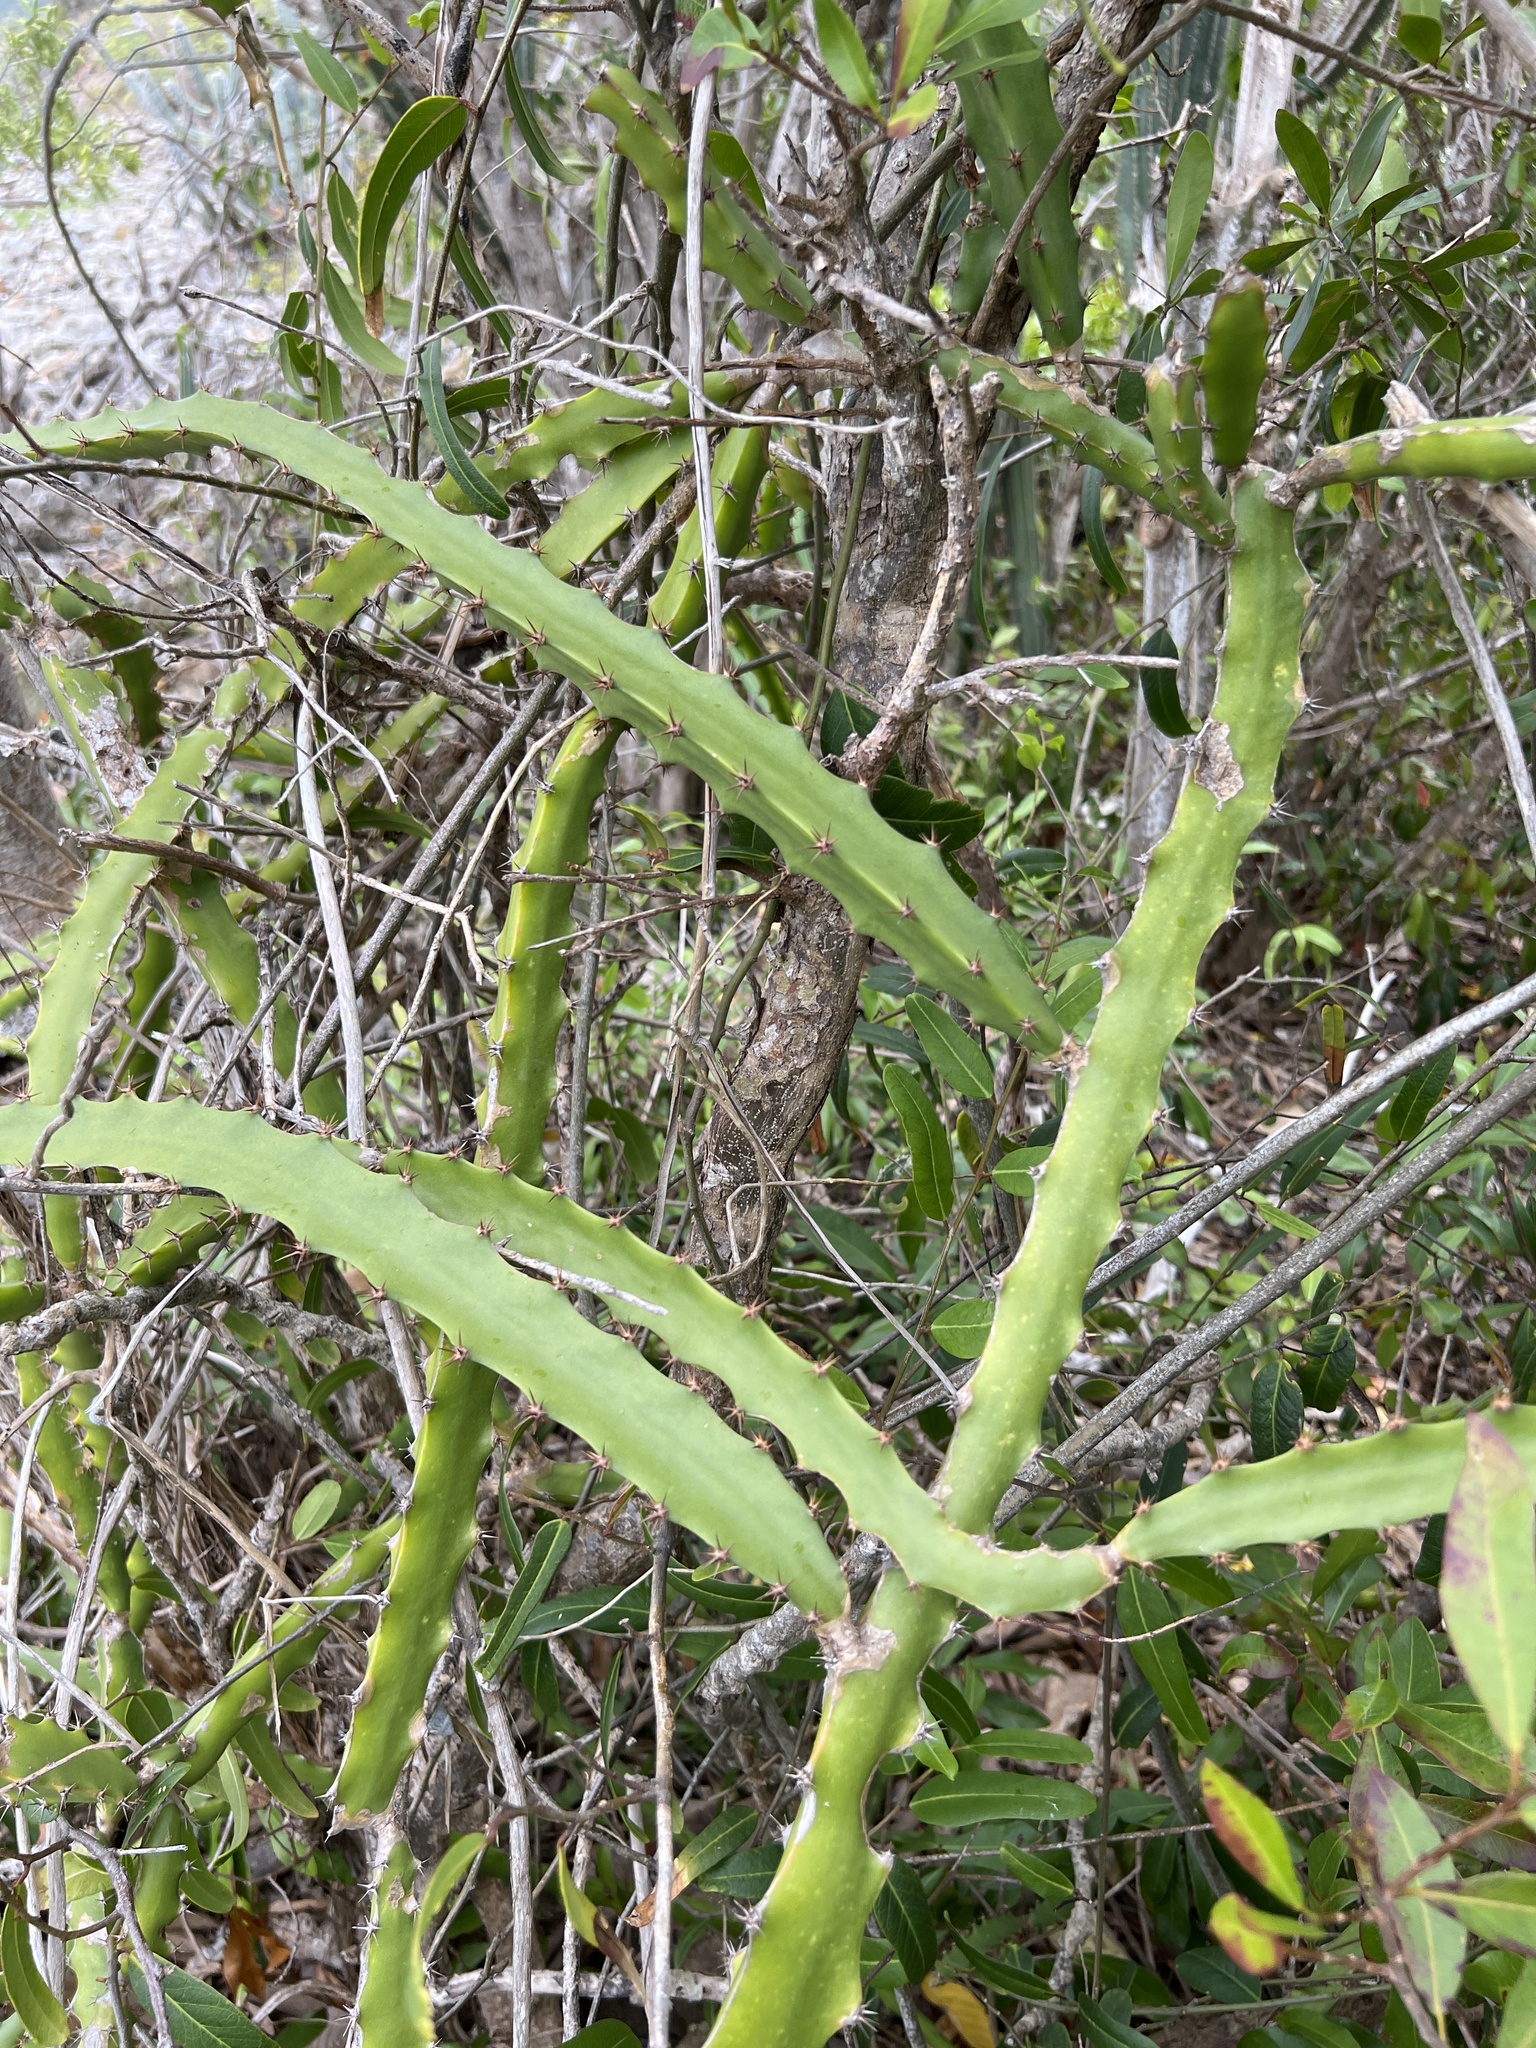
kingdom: Plantae
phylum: Tracheophyta
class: Magnoliopsida
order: Caryophyllales
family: Cactaceae
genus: Selenicereus
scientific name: Selenicereus triangularis
